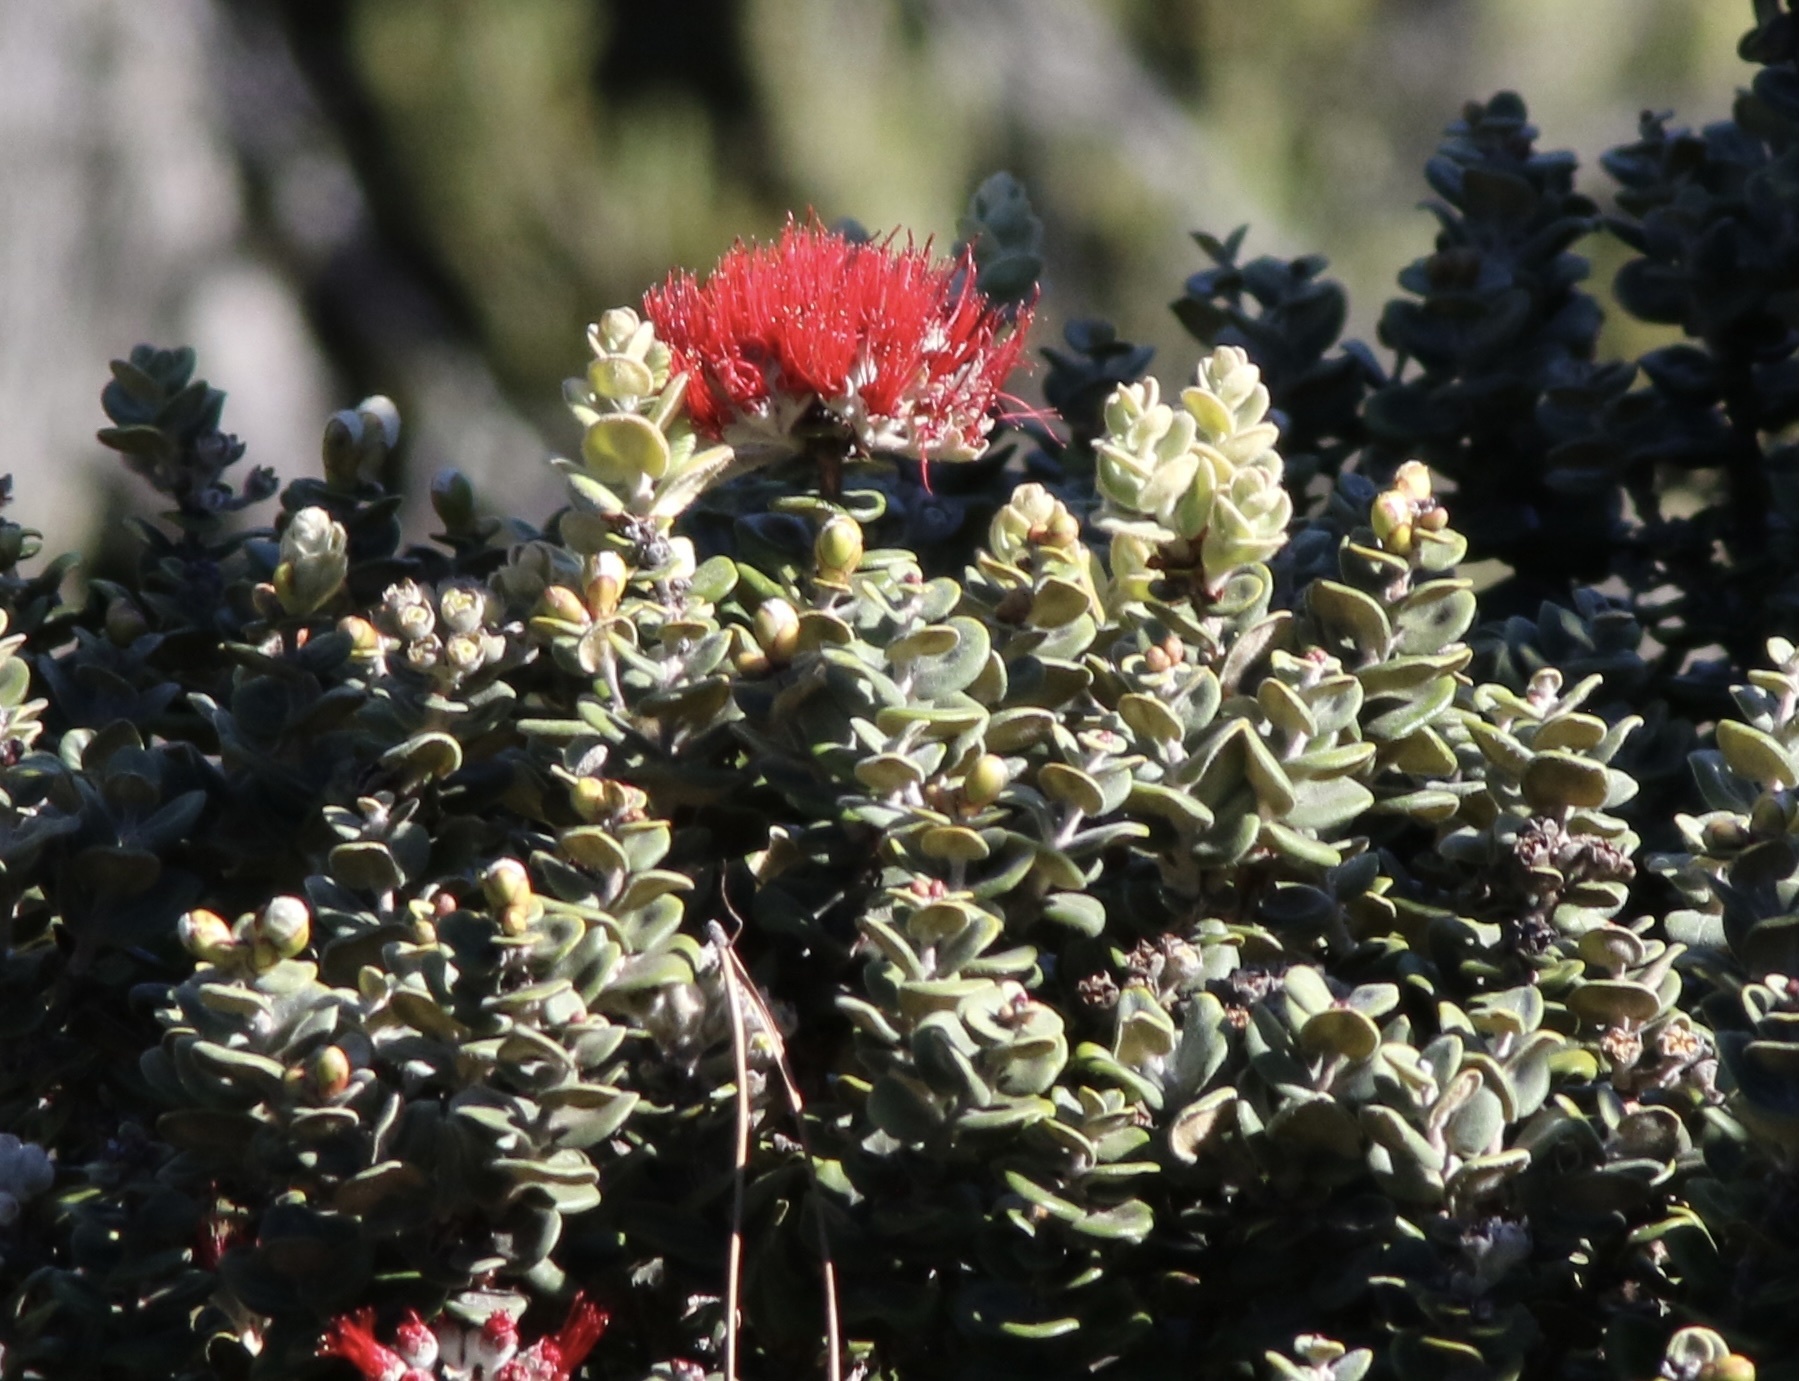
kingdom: Plantae
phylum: Tracheophyta
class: Magnoliopsida
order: Myrtales
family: Myrtaceae
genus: Metrosideros
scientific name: Metrosideros polymorpha
